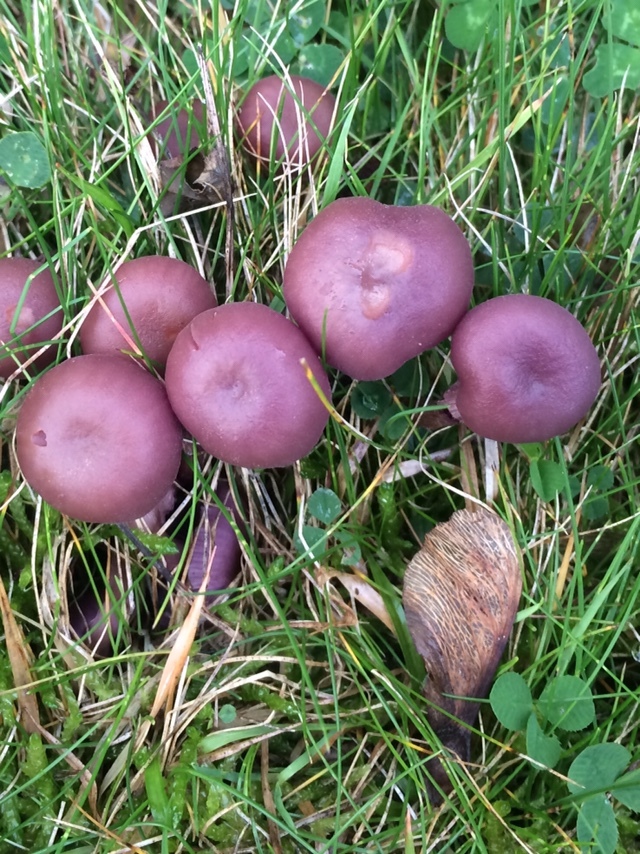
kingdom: Fungi
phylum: Basidiomycota
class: Agaricomycetes
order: Agaricales
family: Hydnangiaceae
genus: Laccaria
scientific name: Laccaria amethystina
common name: Amethyst deceiver
